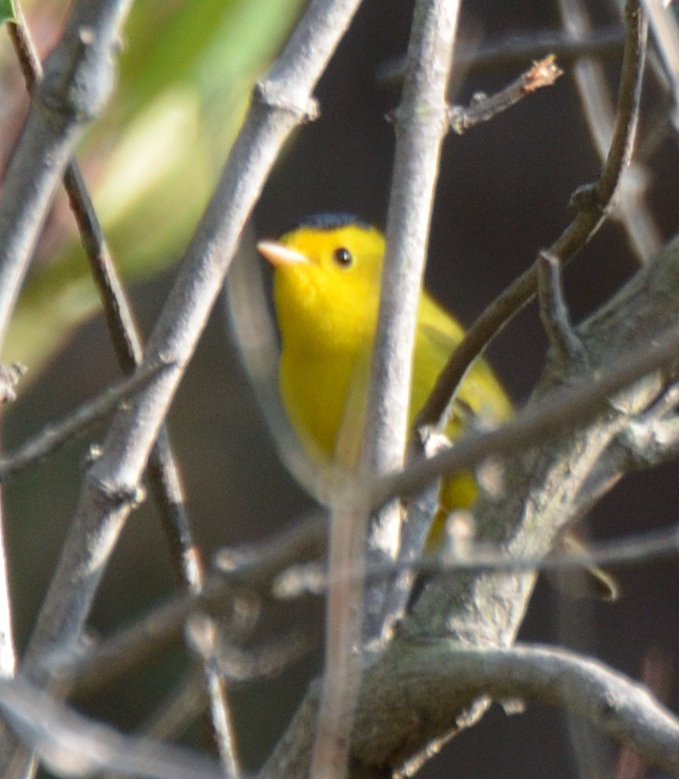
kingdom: Animalia
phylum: Chordata
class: Aves
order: Passeriformes
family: Parulidae
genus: Cardellina
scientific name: Cardellina pusilla
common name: Wilson's warbler
